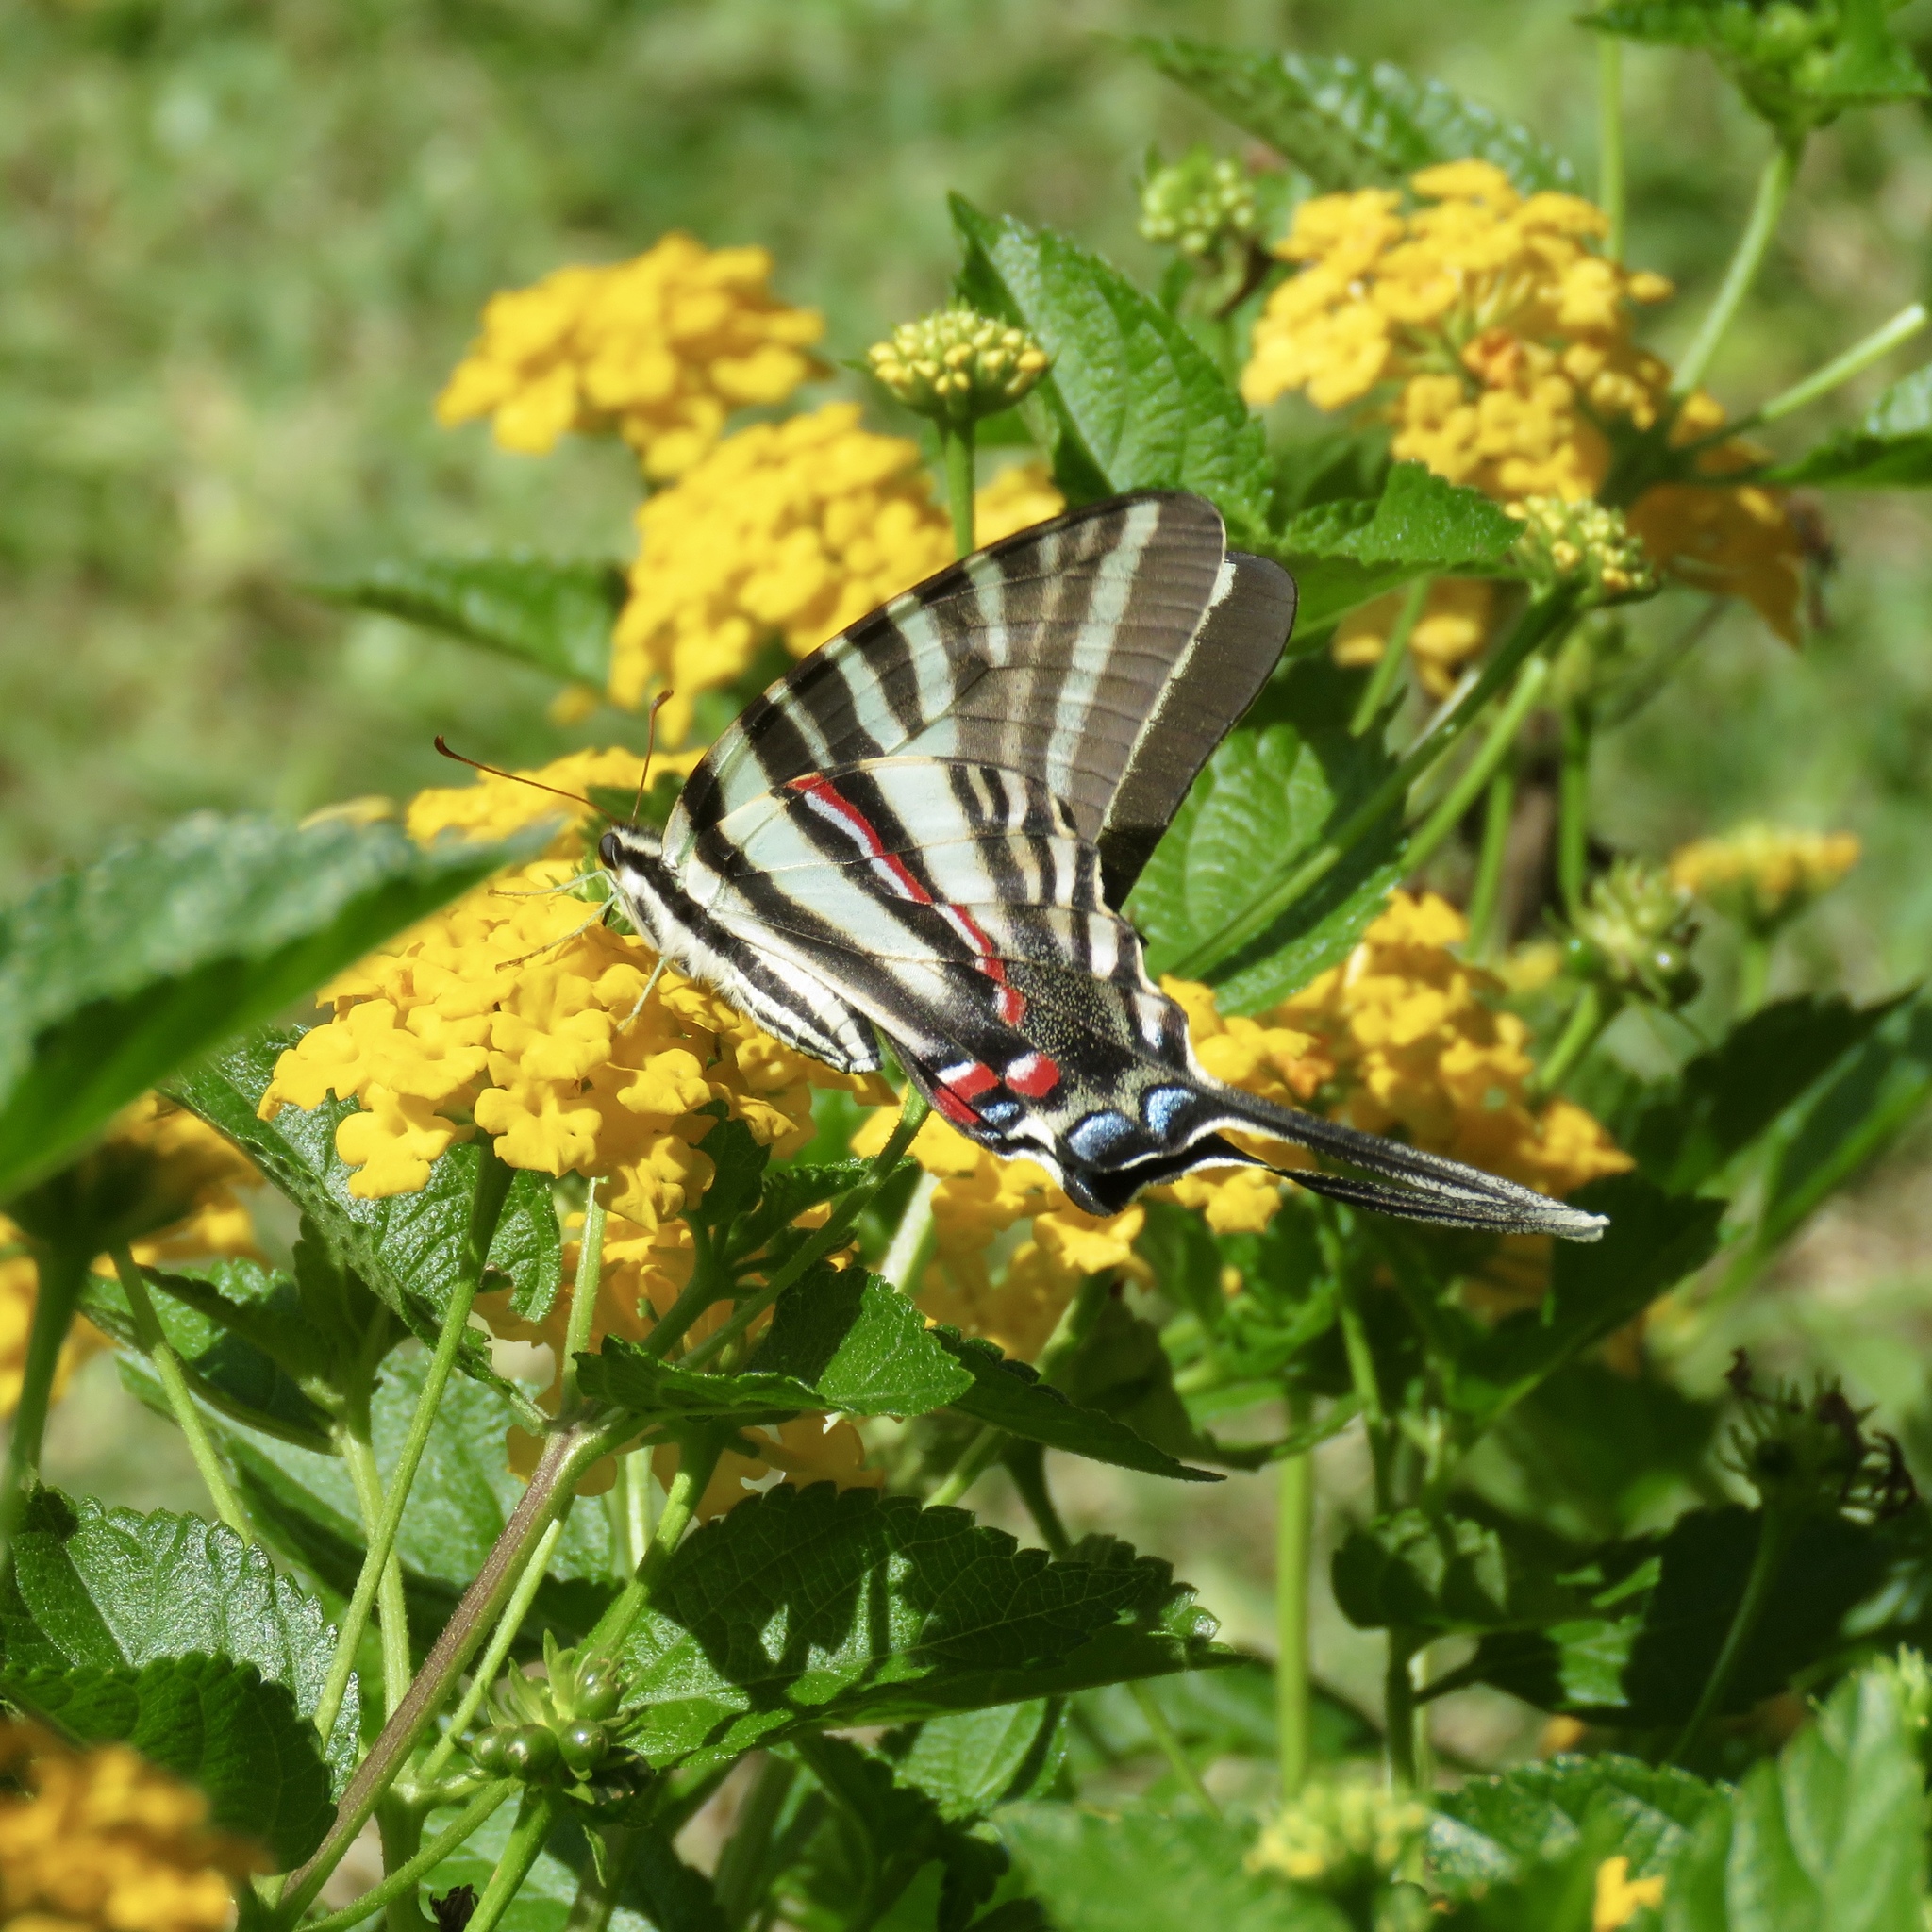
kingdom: Animalia
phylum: Arthropoda
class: Insecta
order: Lepidoptera
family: Papilionidae
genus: Protographium
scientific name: Protographium marcellus
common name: Zebra swallowtail
